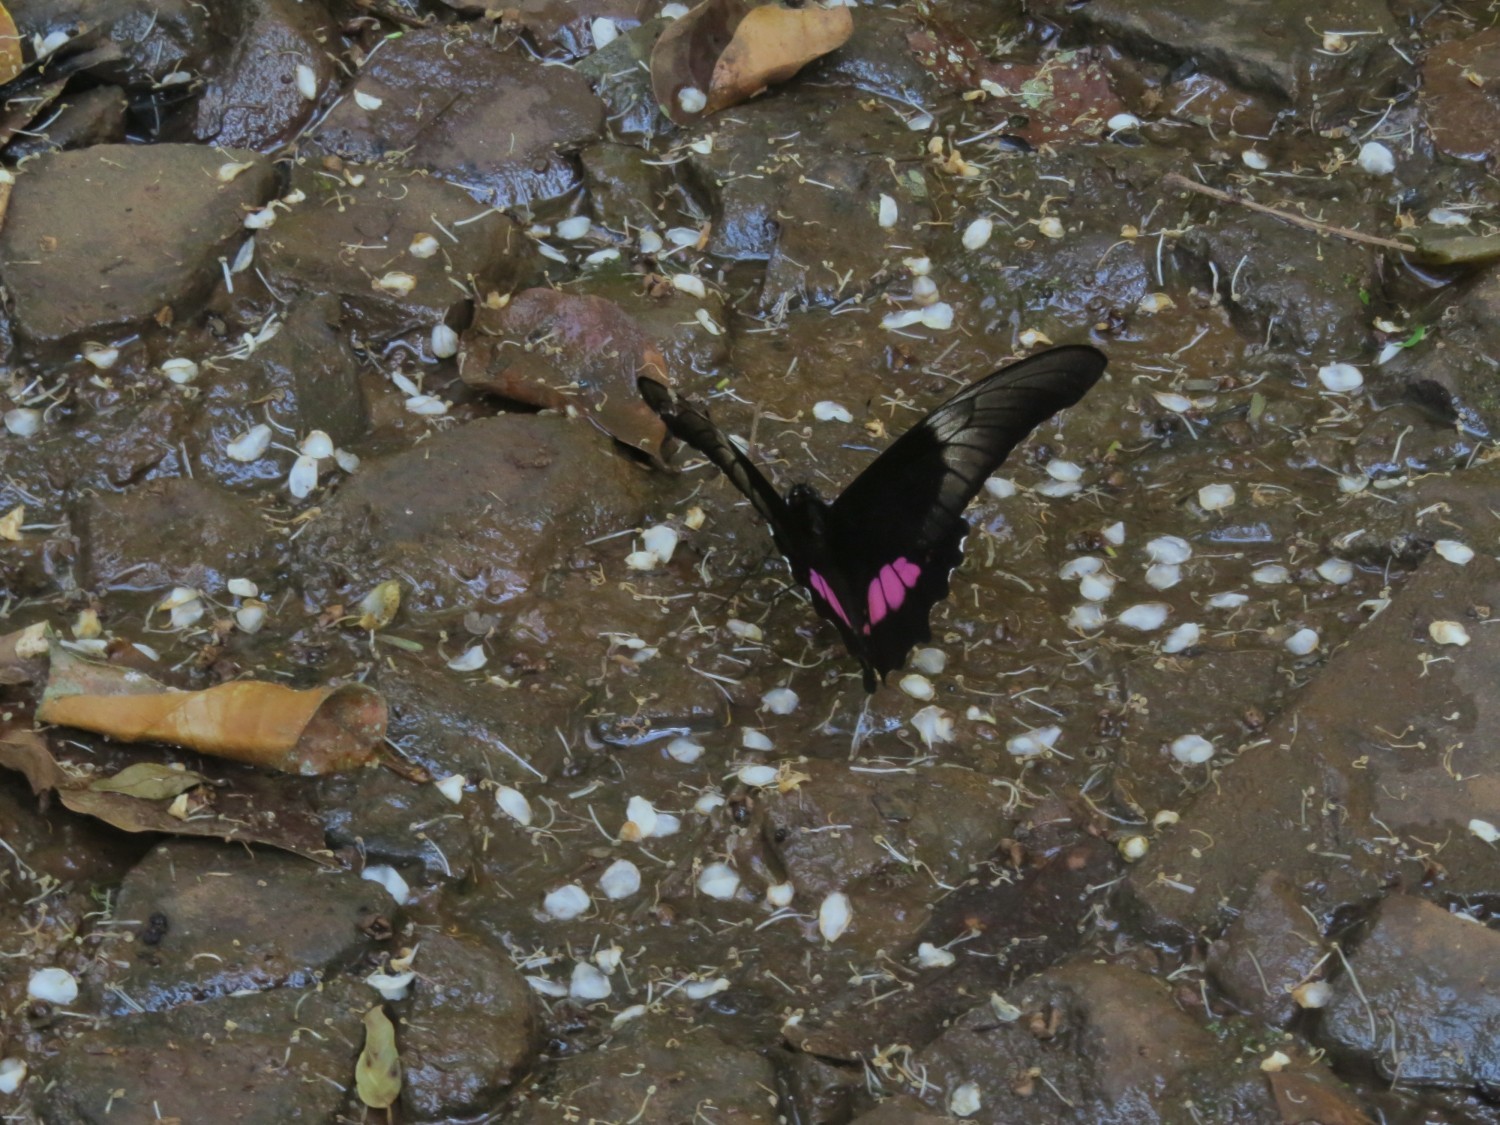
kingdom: Animalia
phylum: Arthropoda
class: Insecta
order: Lepidoptera
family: Papilionidae
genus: Papilio
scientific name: Papilio anchisiades
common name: Idaes swallowtail
